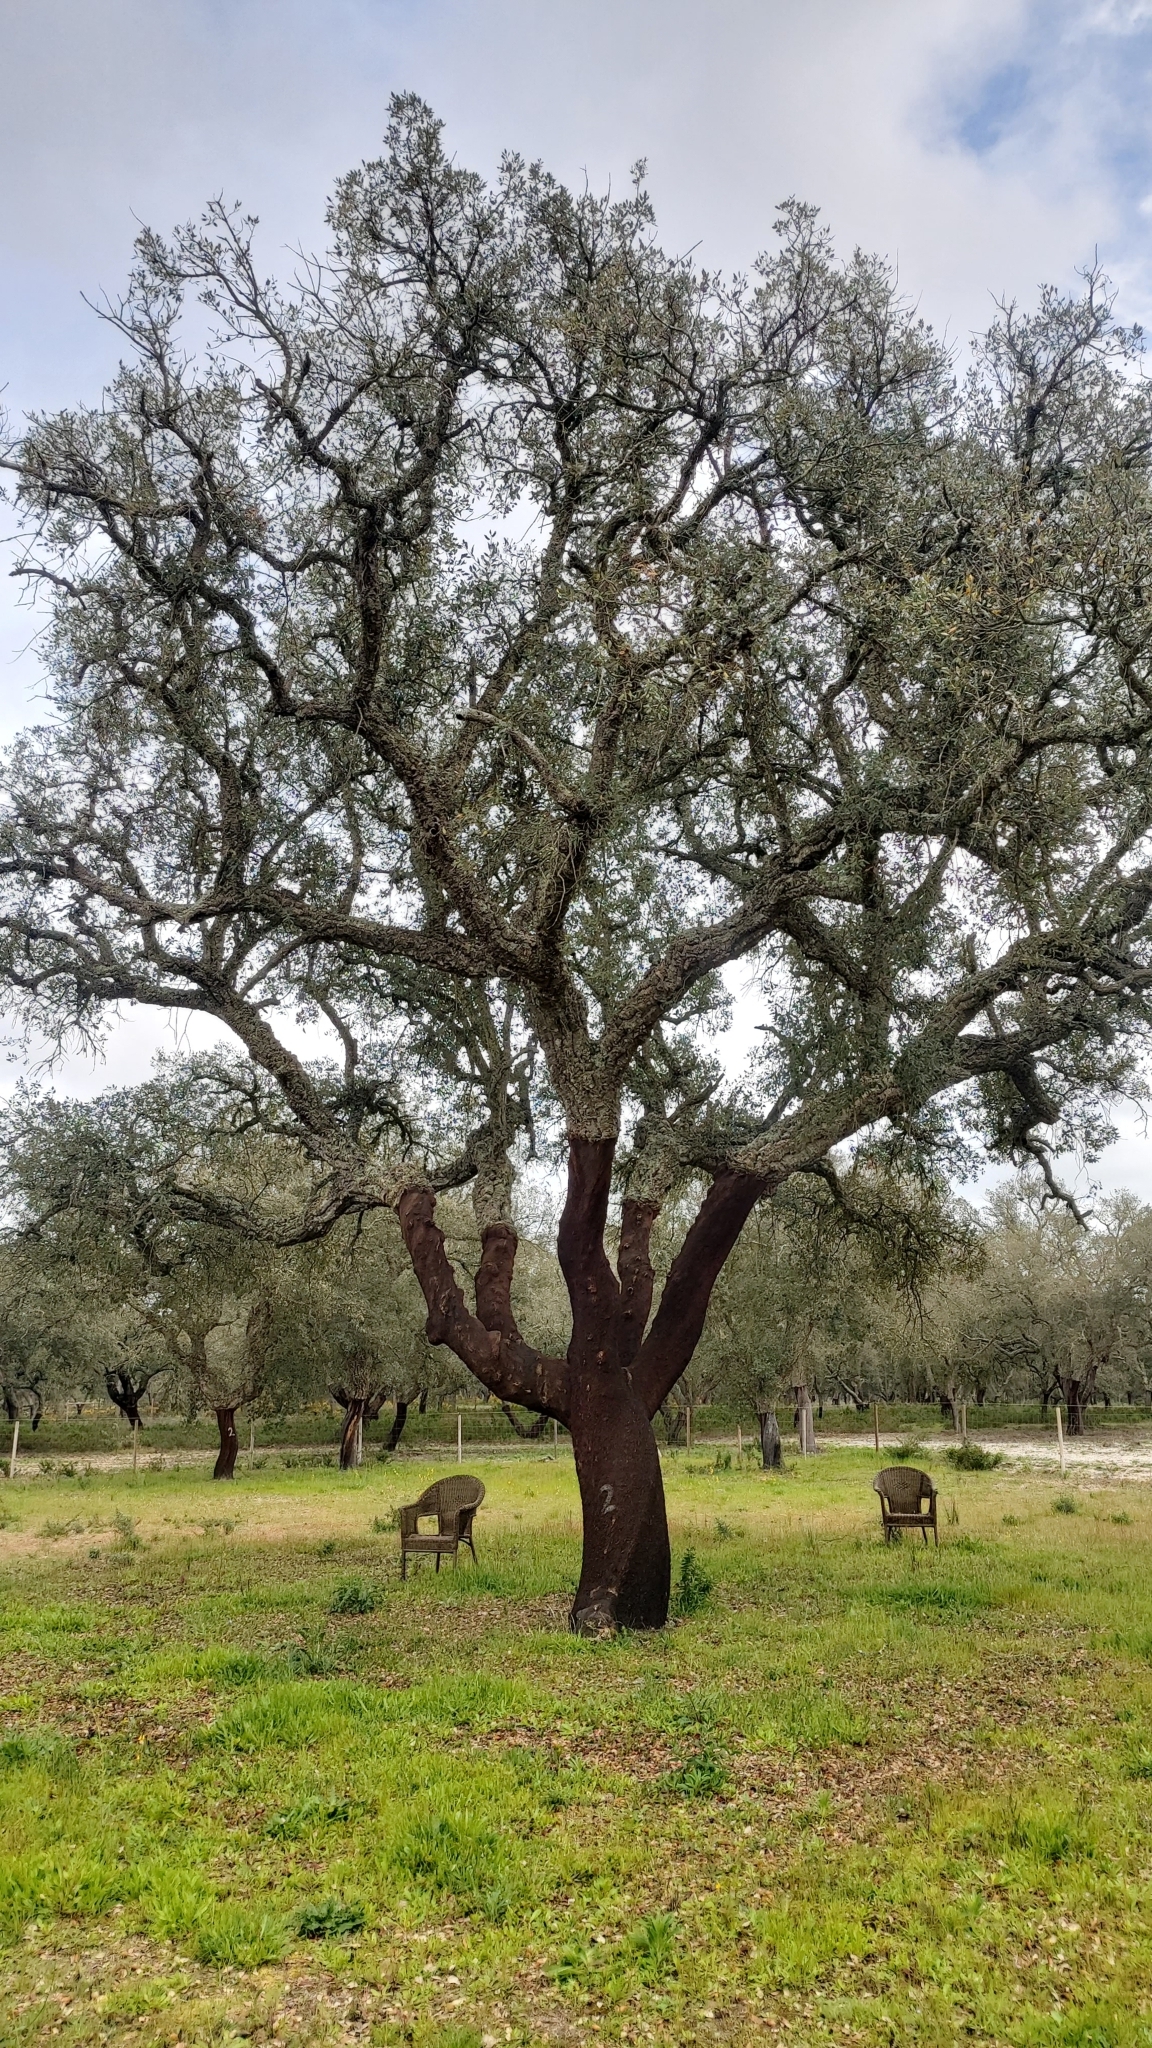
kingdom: Plantae
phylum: Tracheophyta
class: Magnoliopsida
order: Fagales
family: Fagaceae
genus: Quercus
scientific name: Quercus suber
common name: Cork oak
